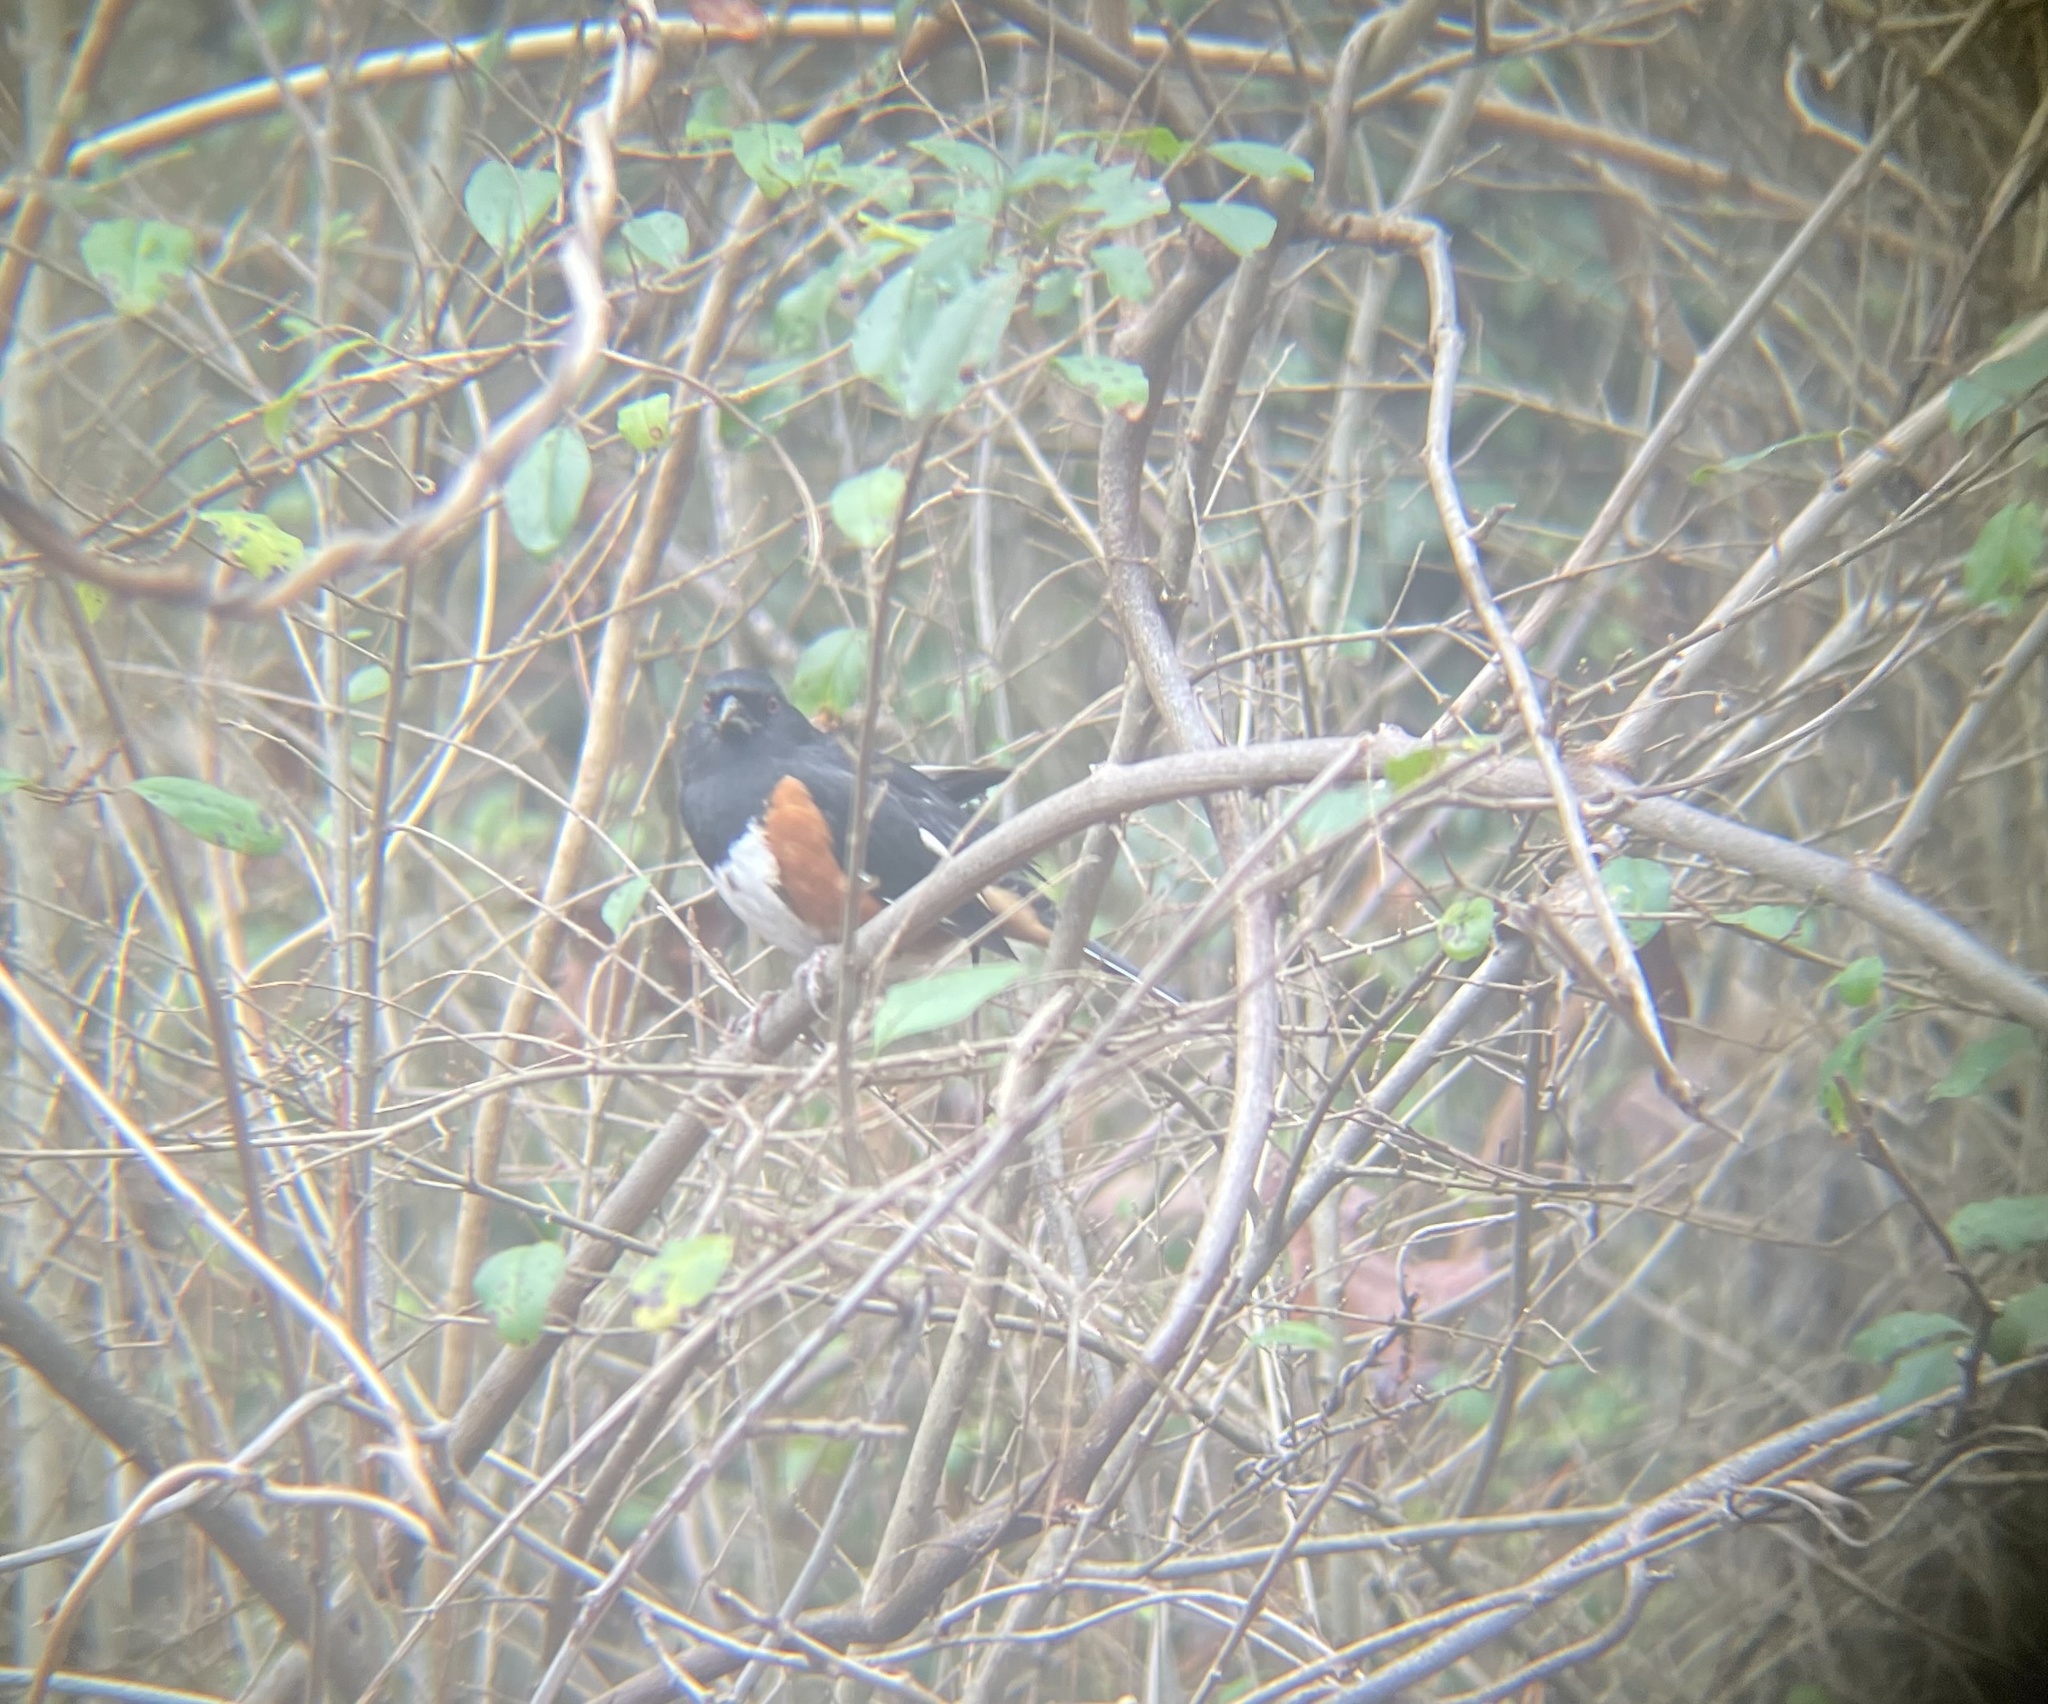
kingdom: Animalia
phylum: Chordata
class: Aves
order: Passeriformes
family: Passerellidae
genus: Pipilo
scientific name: Pipilo erythrophthalmus
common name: Eastern towhee
